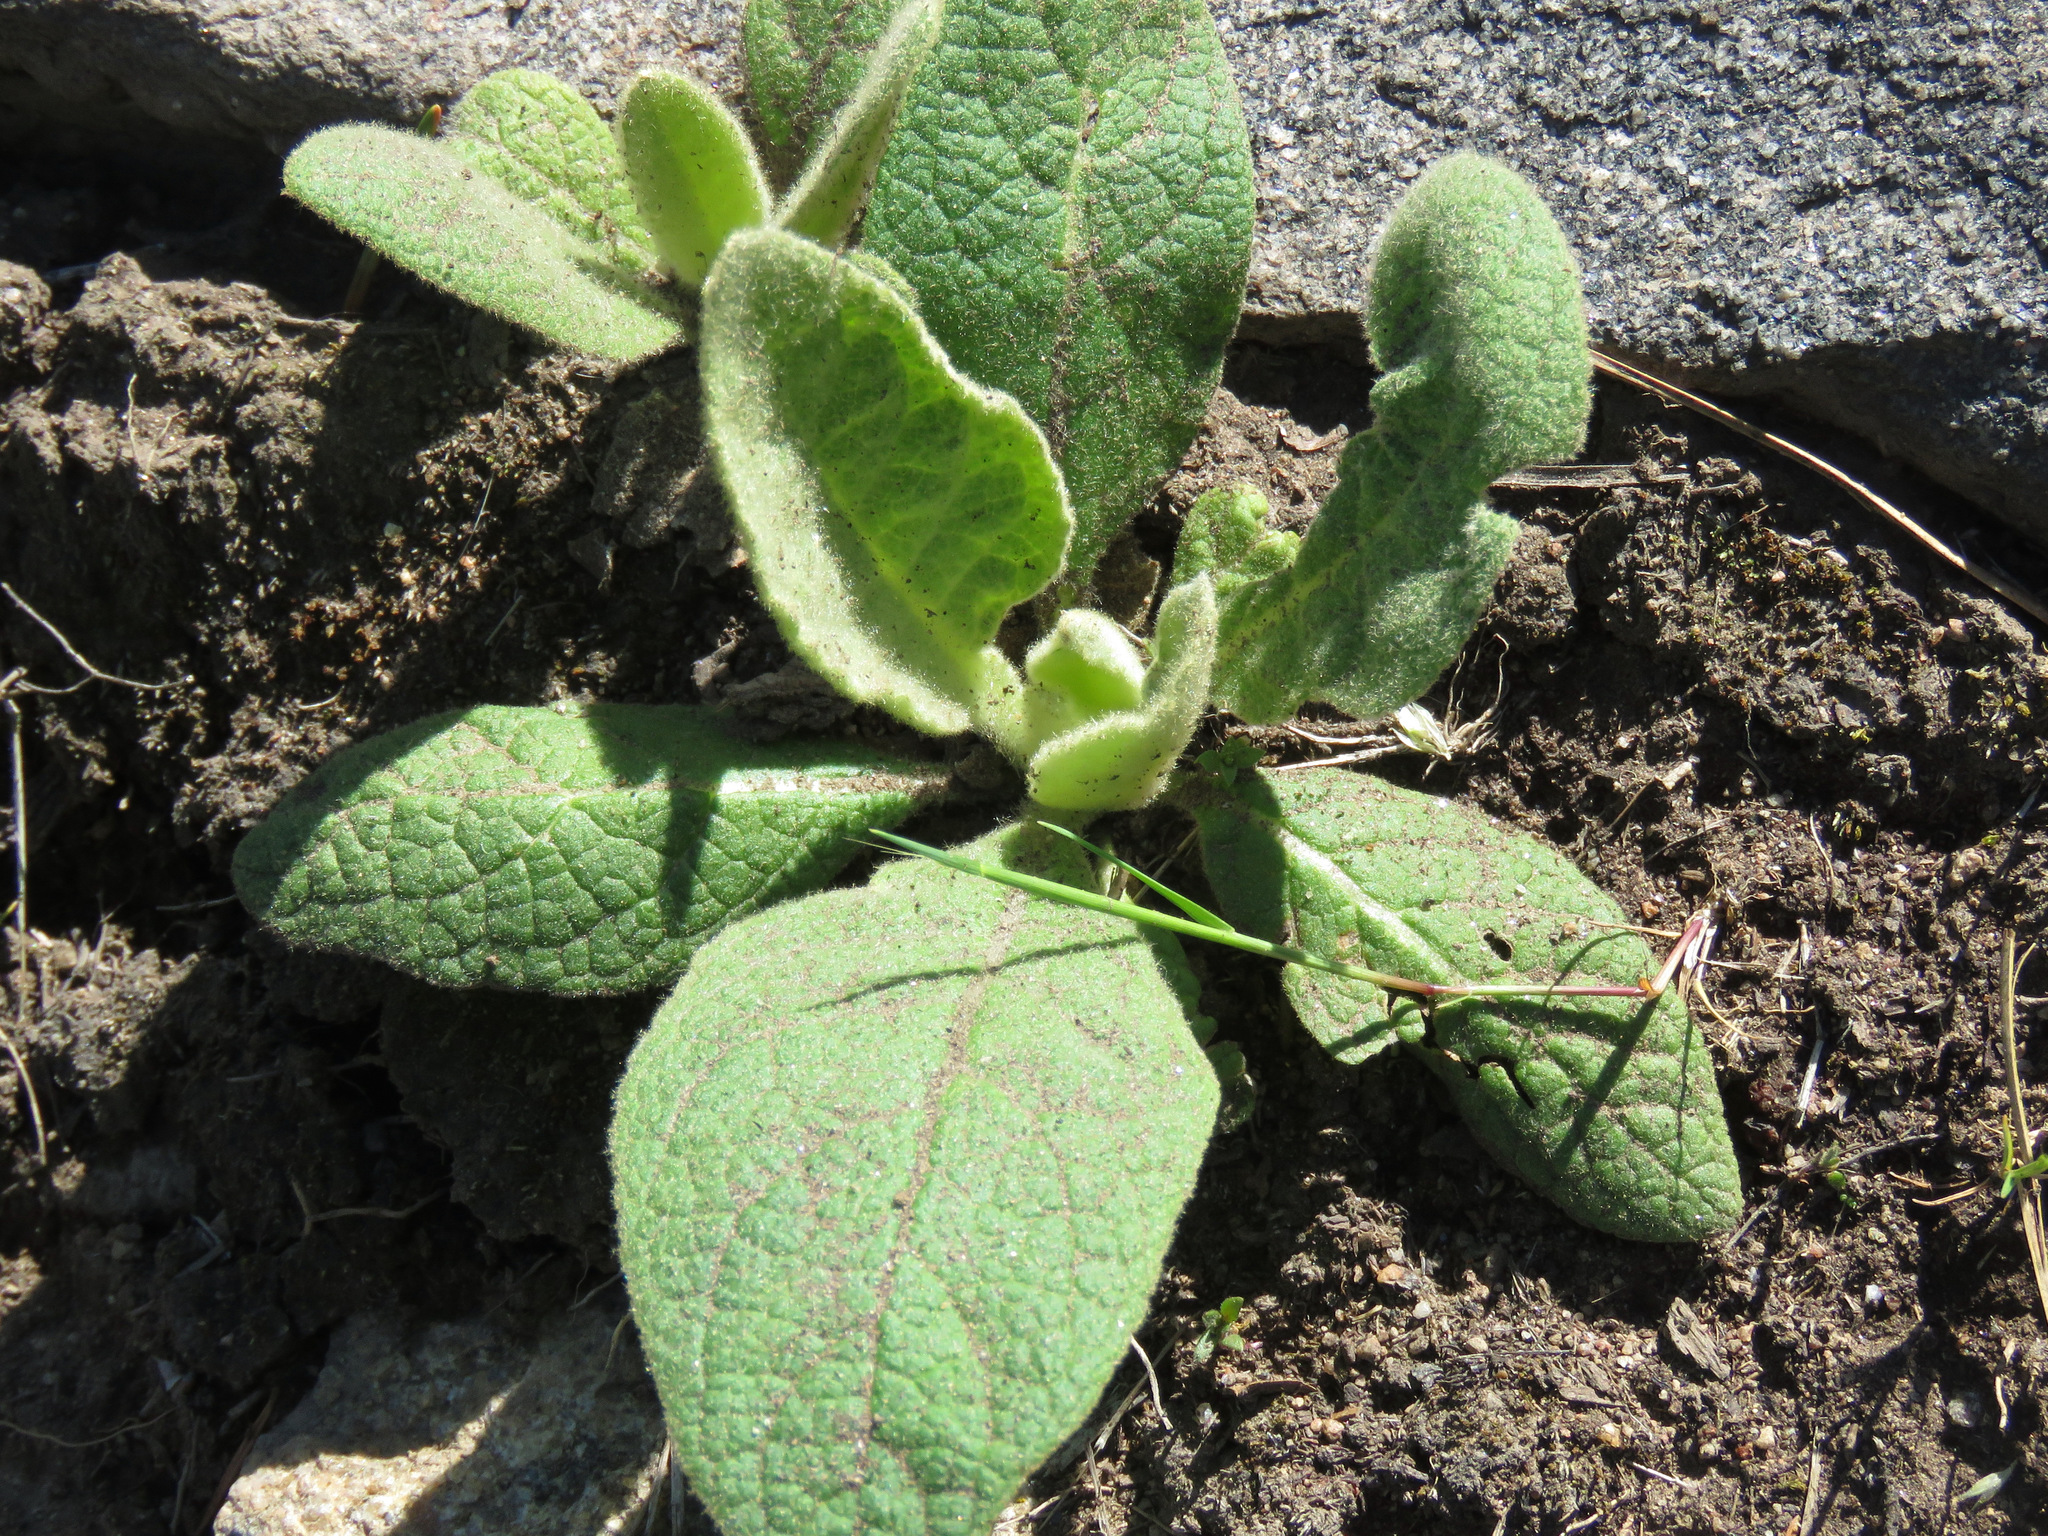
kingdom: Plantae
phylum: Tracheophyta
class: Magnoliopsida
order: Lamiales
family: Scrophulariaceae
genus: Verbascum
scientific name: Verbascum thapsus
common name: Common mullein
